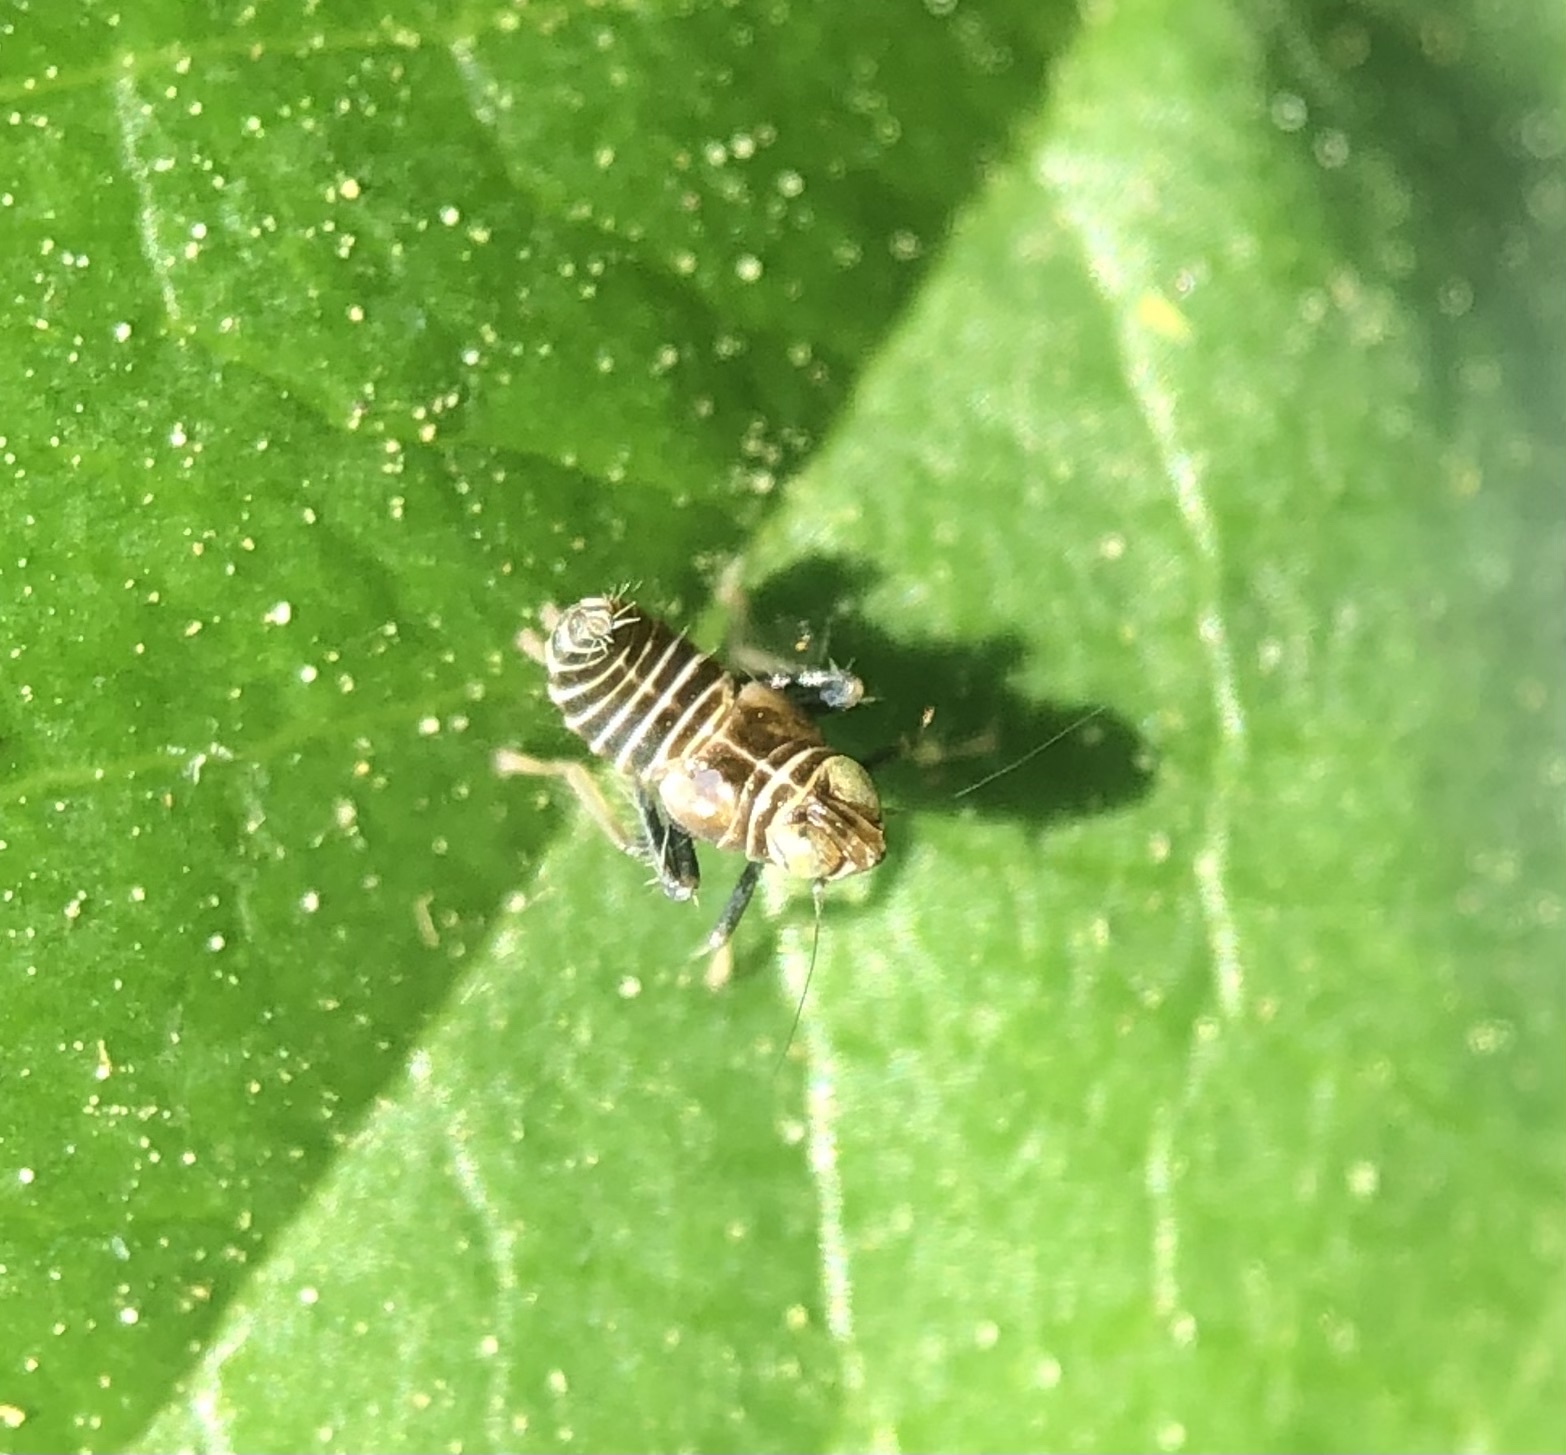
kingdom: Animalia
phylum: Arthropoda
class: Insecta
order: Hemiptera
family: Cicadellidae
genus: Jikradia
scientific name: Jikradia olitoria
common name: Coppery leafhopper
